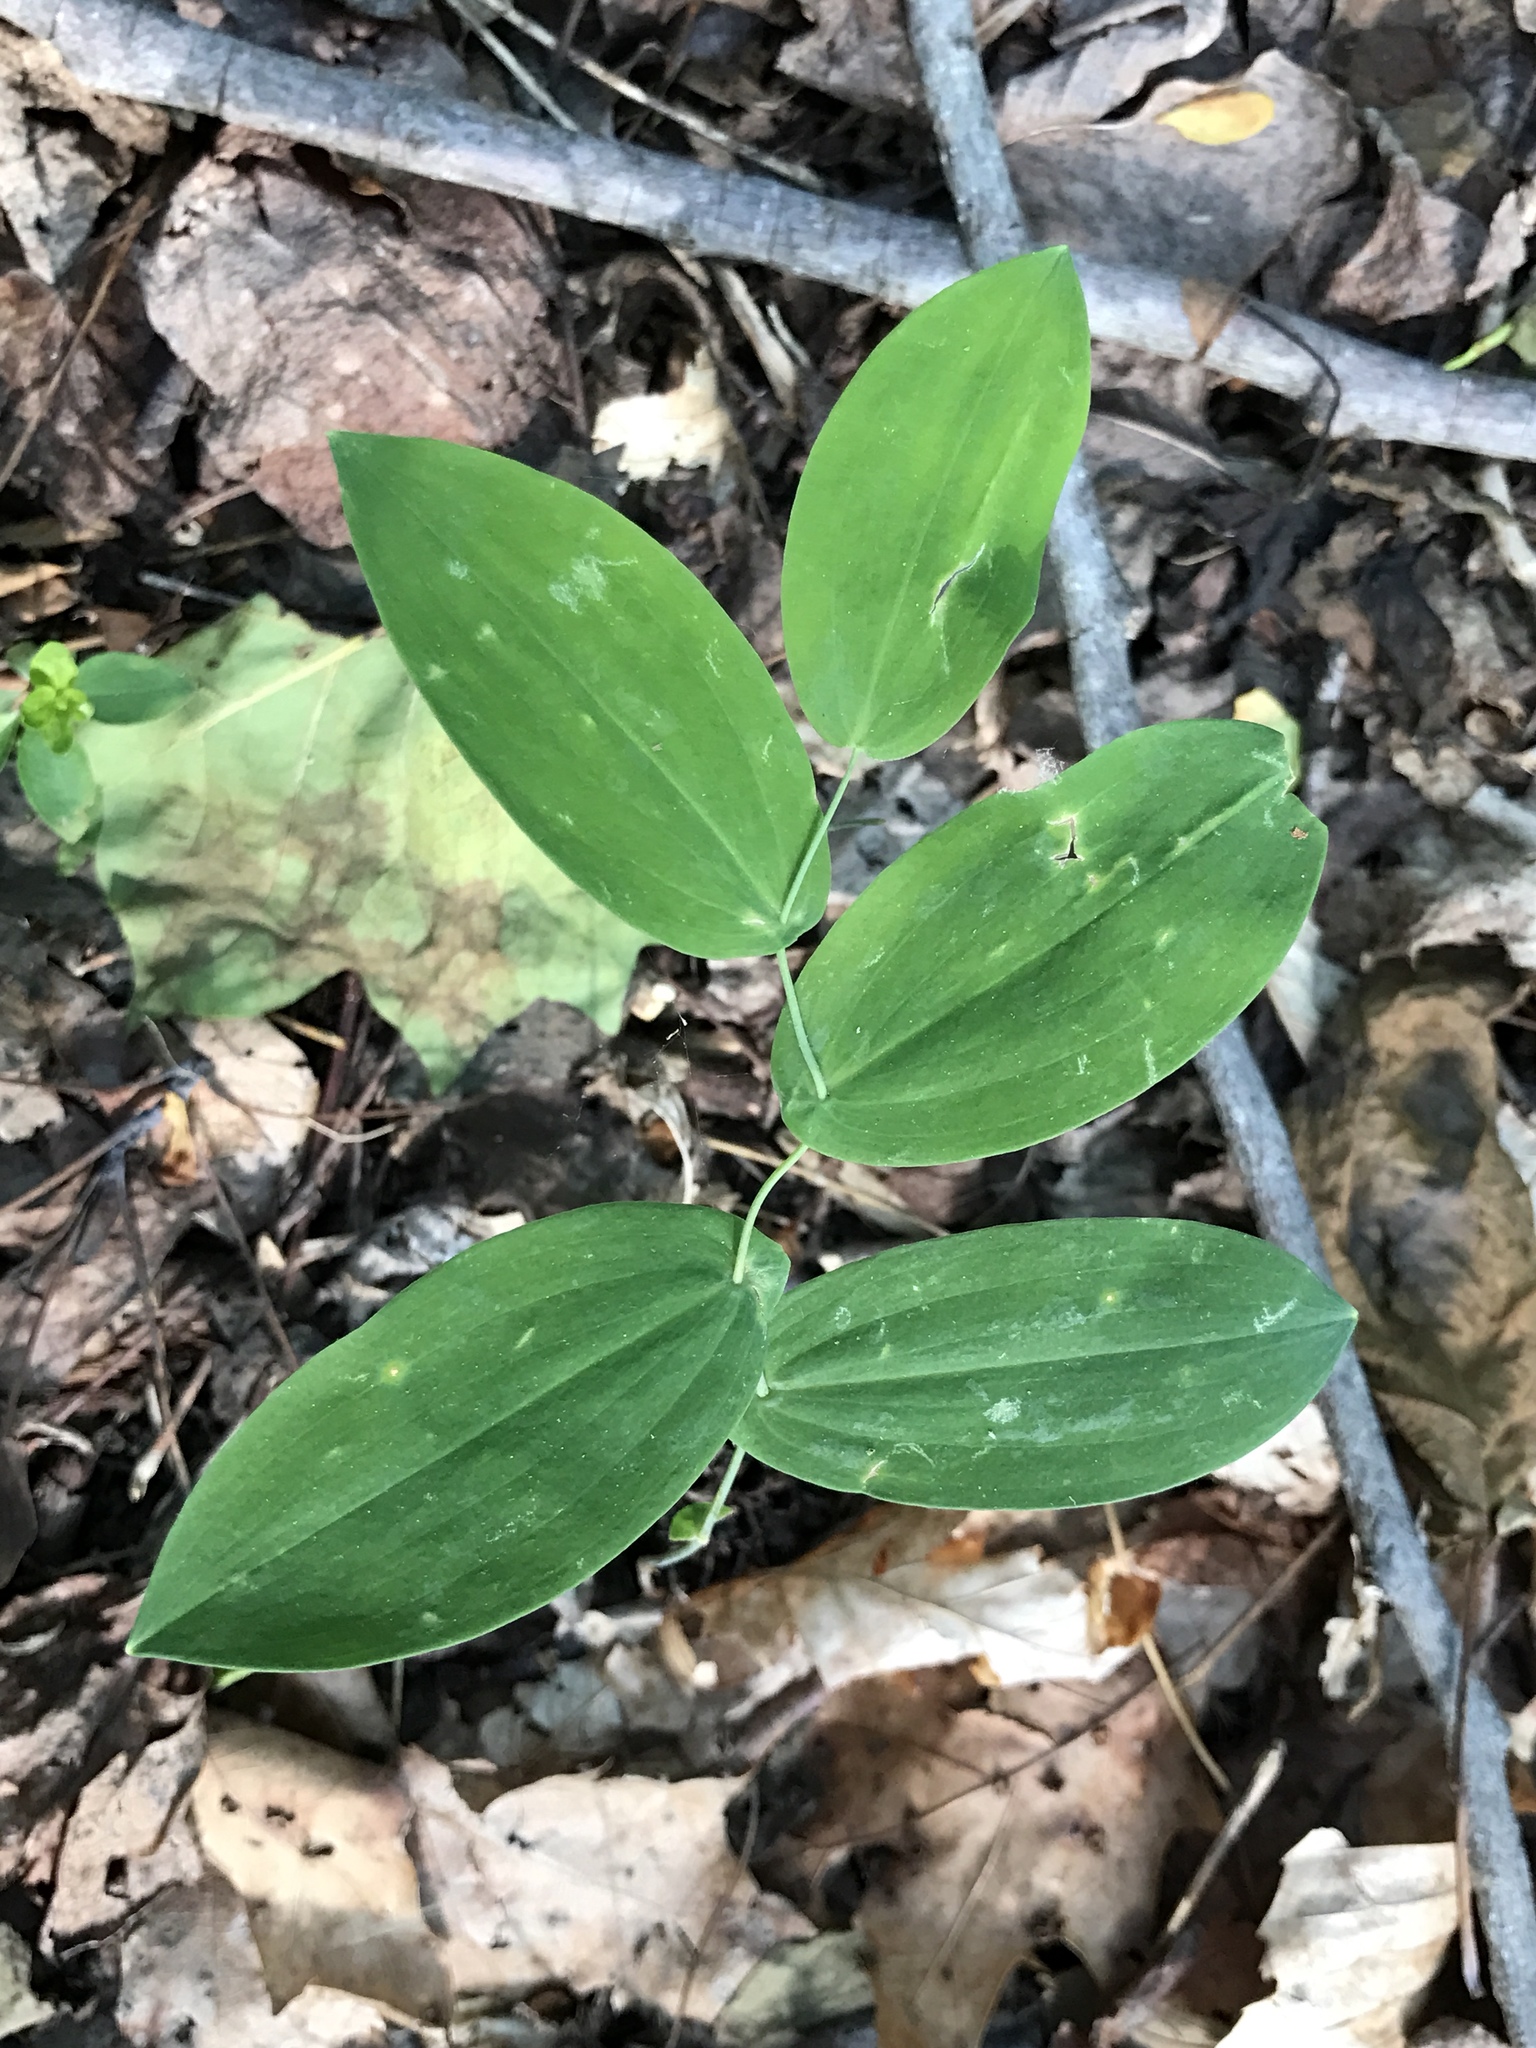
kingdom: Plantae
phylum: Tracheophyta
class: Liliopsida
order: Liliales
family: Colchicaceae
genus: Uvularia
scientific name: Uvularia perfoliata
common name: Perfoliate bellwort
